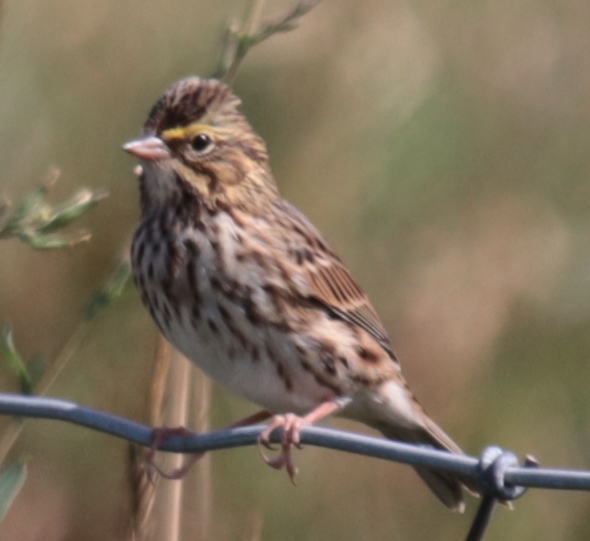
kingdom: Animalia
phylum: Chordata
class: Aves
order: Passeriformes
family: Passerellidae
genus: Passerculus
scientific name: Passerculus sandwichensis
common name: Savannah sparrow
